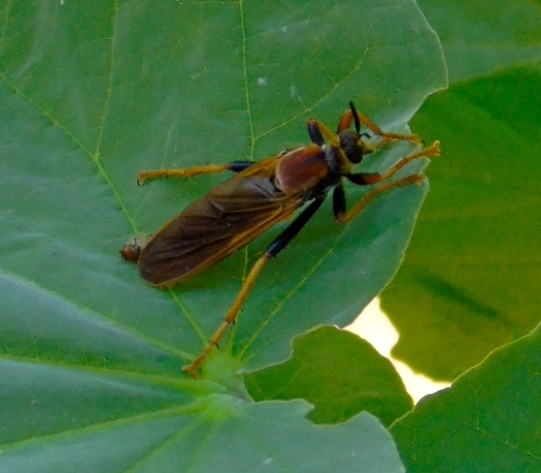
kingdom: Animalia
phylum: Arthropoda
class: Insecta
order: Diptera
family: Asilidae
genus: Stenopogon
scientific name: Stenopogon tequilae
